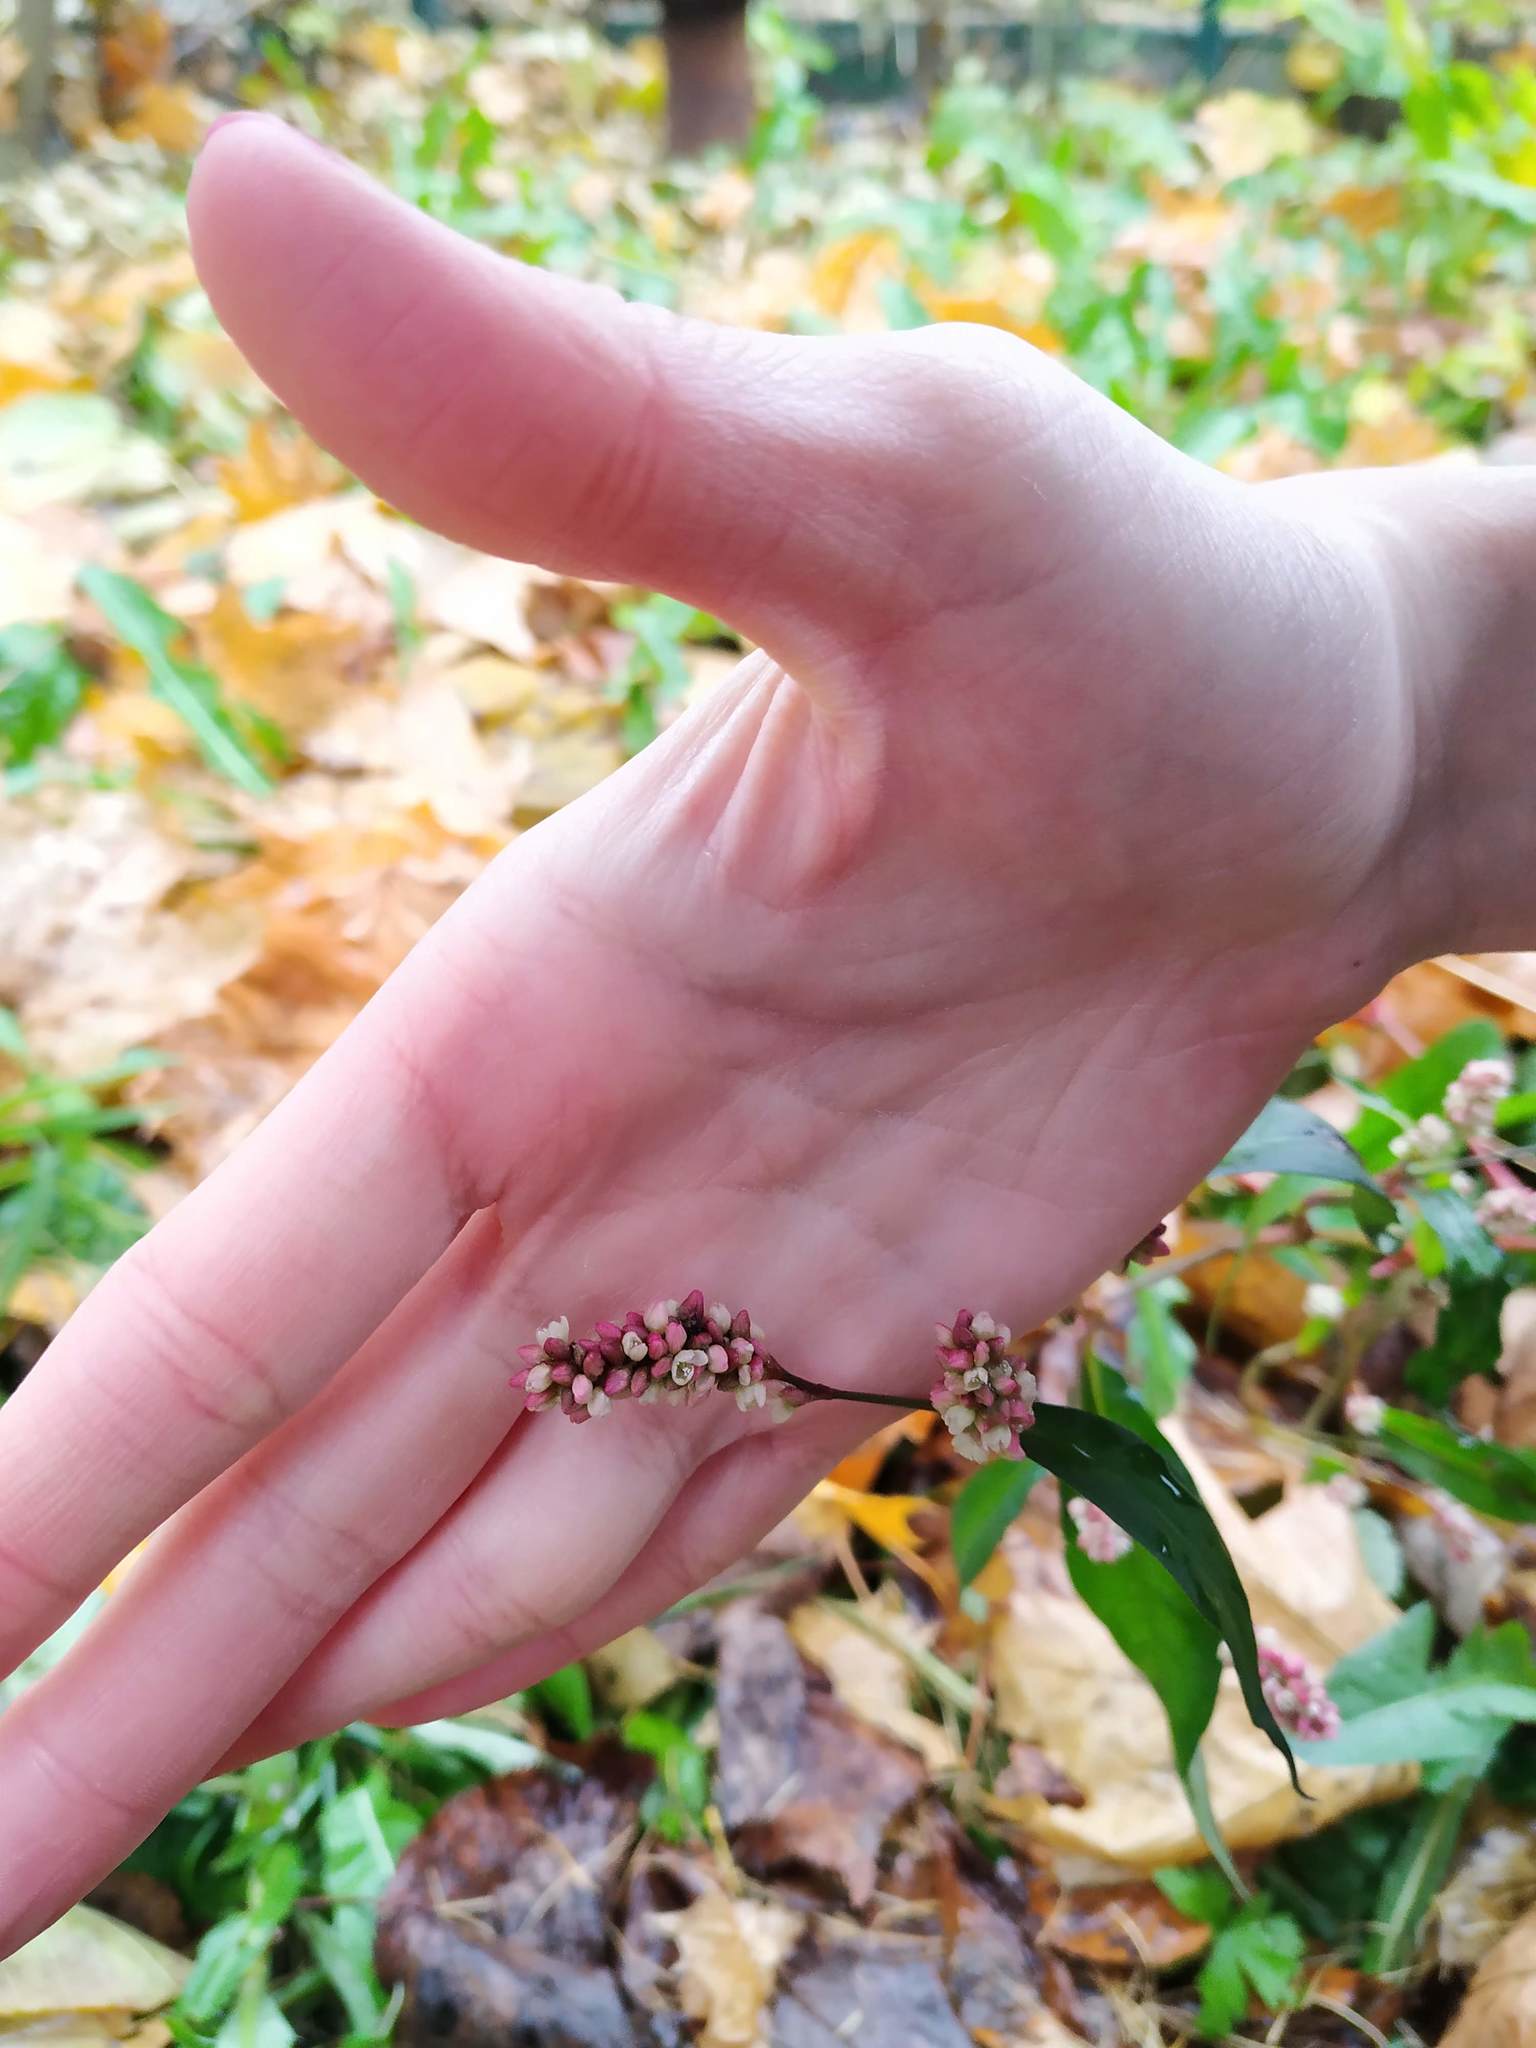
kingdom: Plantae
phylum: Tracheophyta
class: Magnoliopsida
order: Caryophyllales
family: Polygonaceae
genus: Persicaria
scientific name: Persicaria maculosa
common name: Redshank
